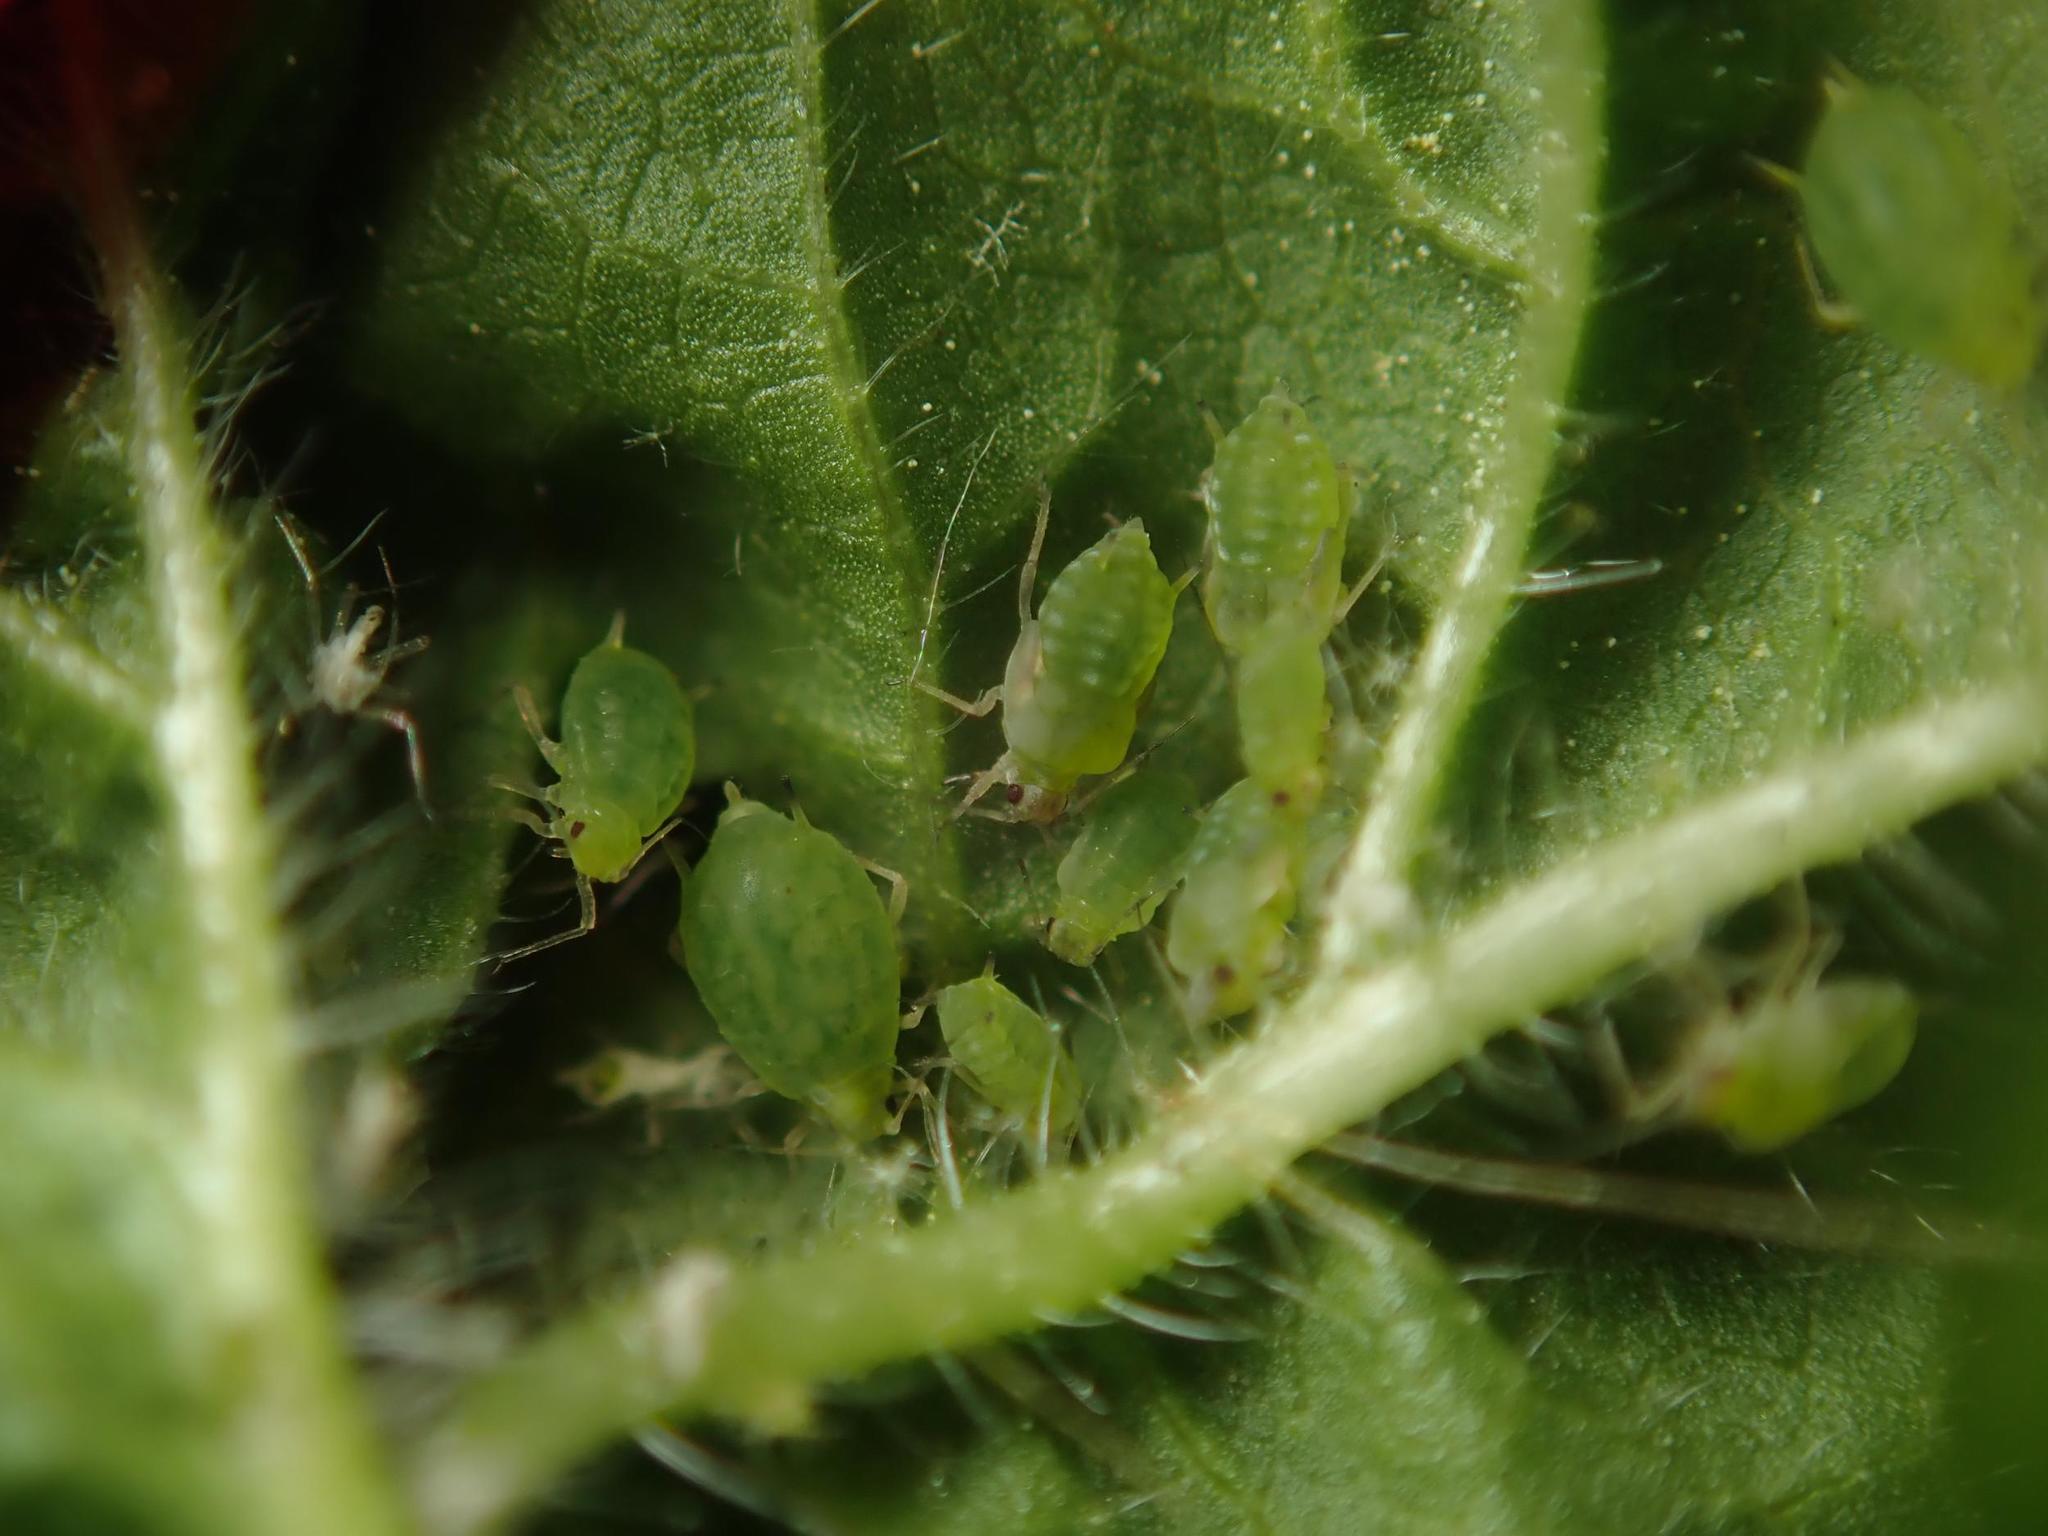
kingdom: Animalia
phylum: Arthropoda
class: Insecta
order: Hemiptera
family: Aphididae
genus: Aphis
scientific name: Aphis umbrella
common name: Umbrella aphid
